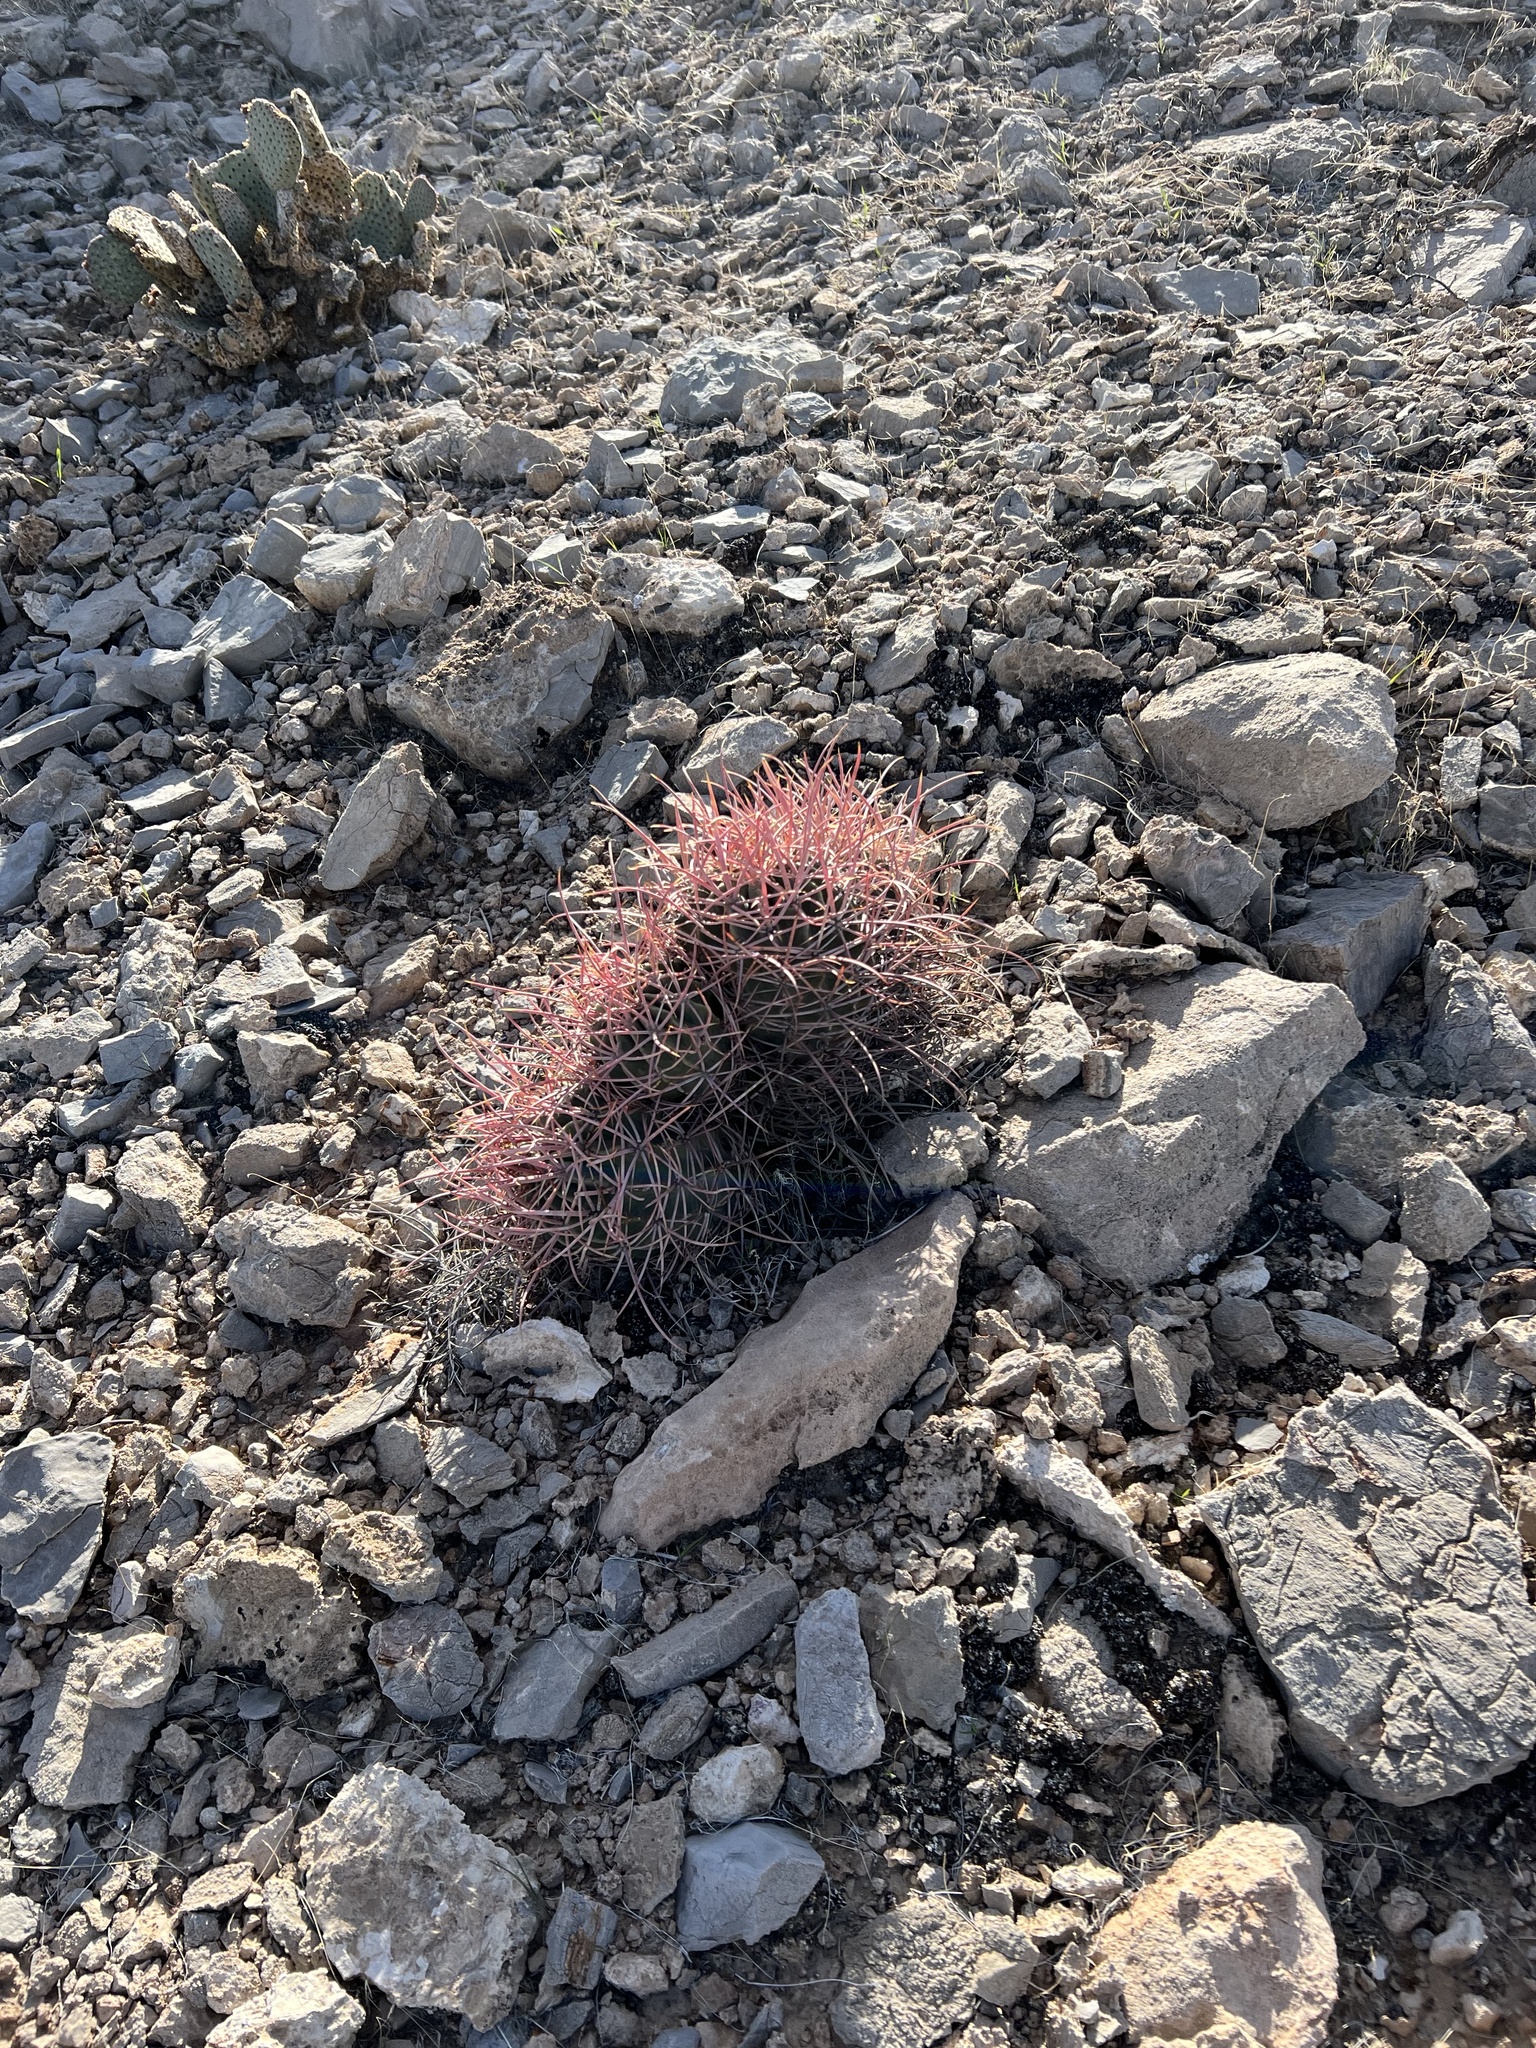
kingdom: Plantae
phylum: Tracheophyta
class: Magnoliopsida
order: Caryophyllales
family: Cactaceae
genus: Echinocactus
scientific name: Echinocactus polycephalus
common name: Cottontop cactus
